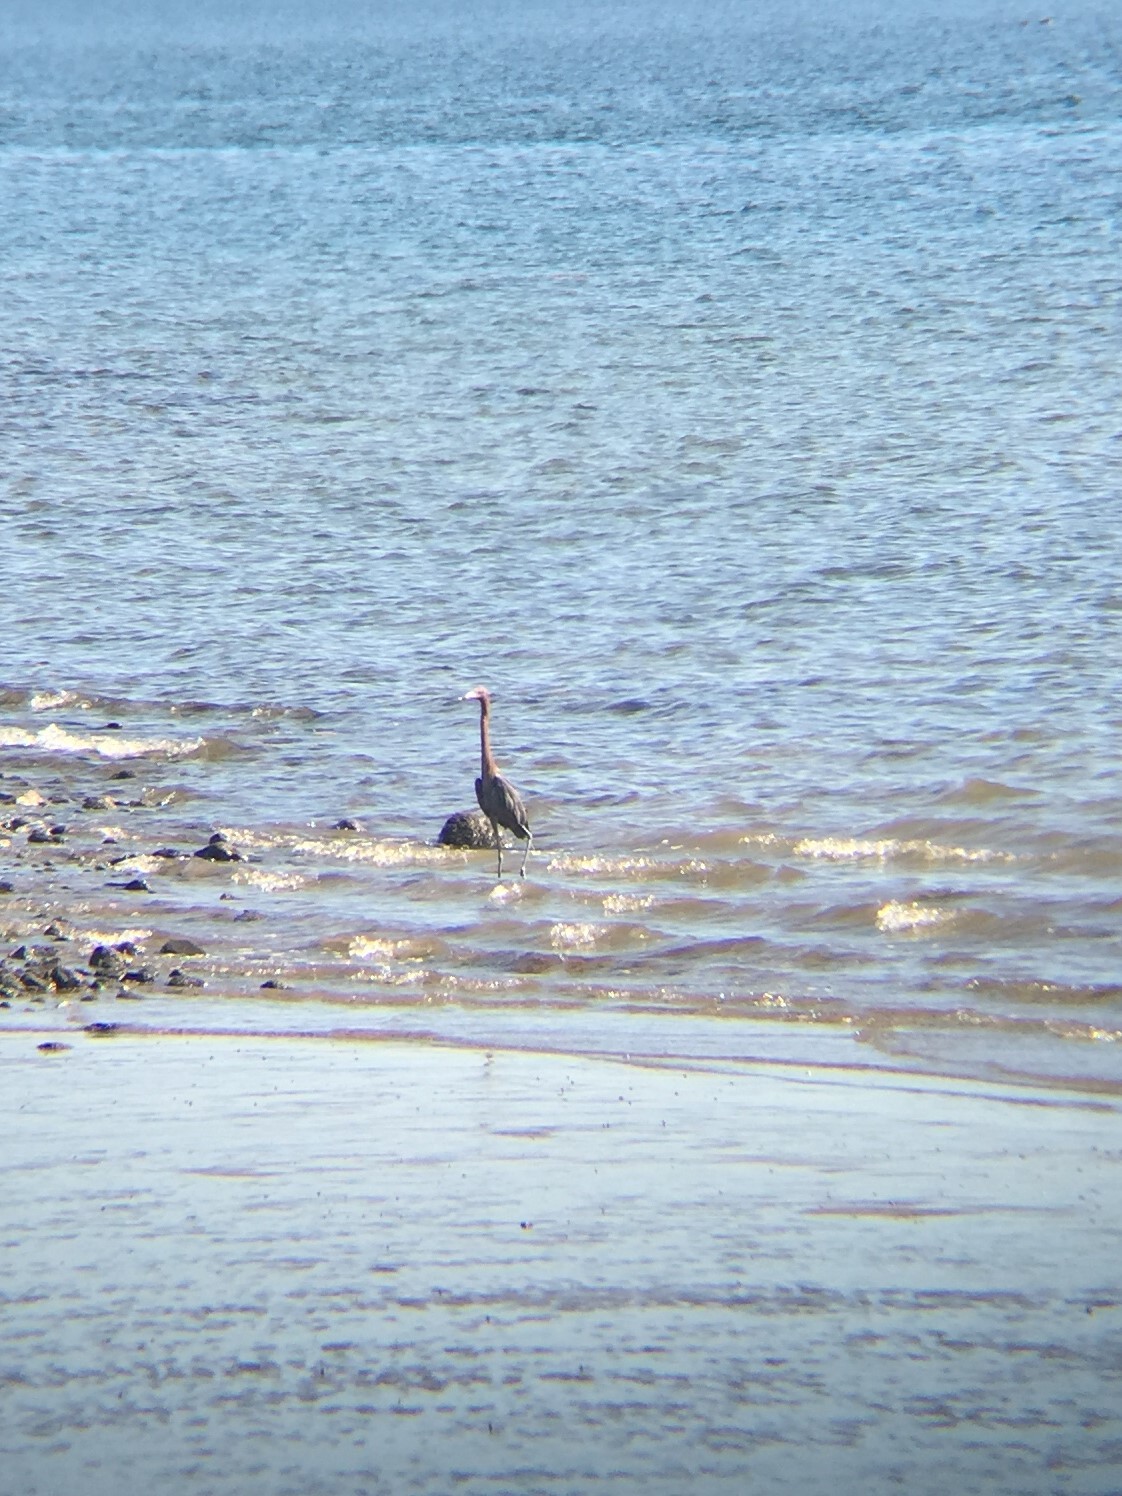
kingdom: Animalia
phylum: Chordata
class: Aves
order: Pelecaniformes
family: Ardeidae
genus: Egretta
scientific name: Egretta rufescens
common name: Reddish egret
